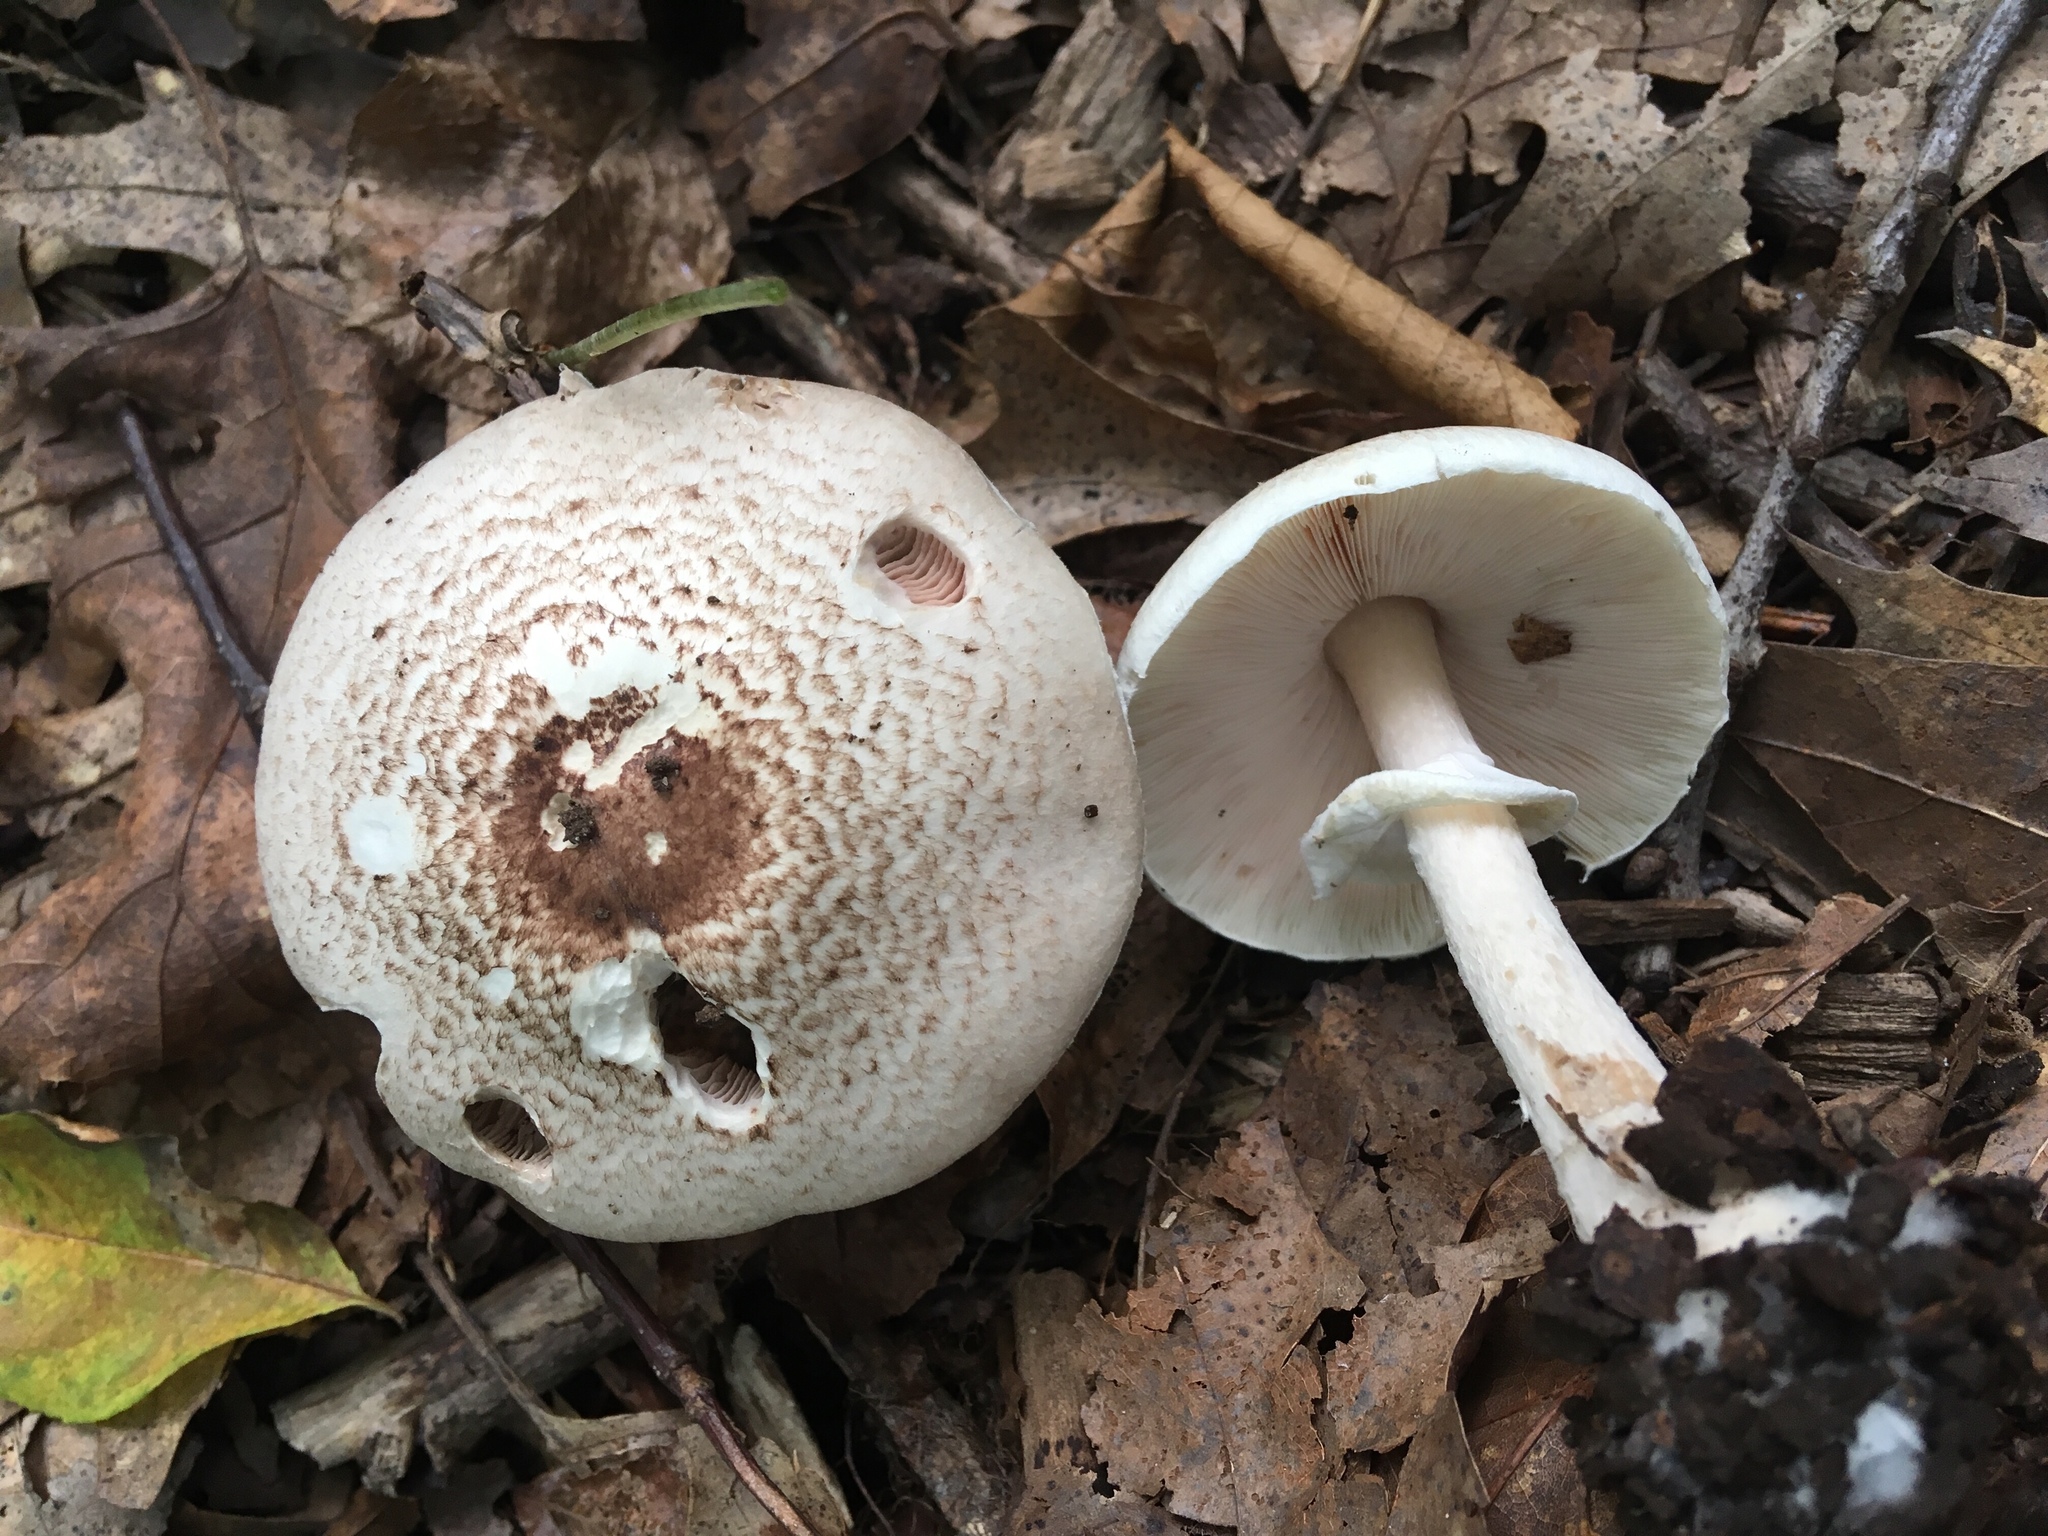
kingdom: Fungi
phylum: Basidiomycota
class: Agaricomycetes
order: Agaricales
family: Agaricaceae
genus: Agaricus
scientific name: Agaricus placomyces
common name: Inky mushroom
